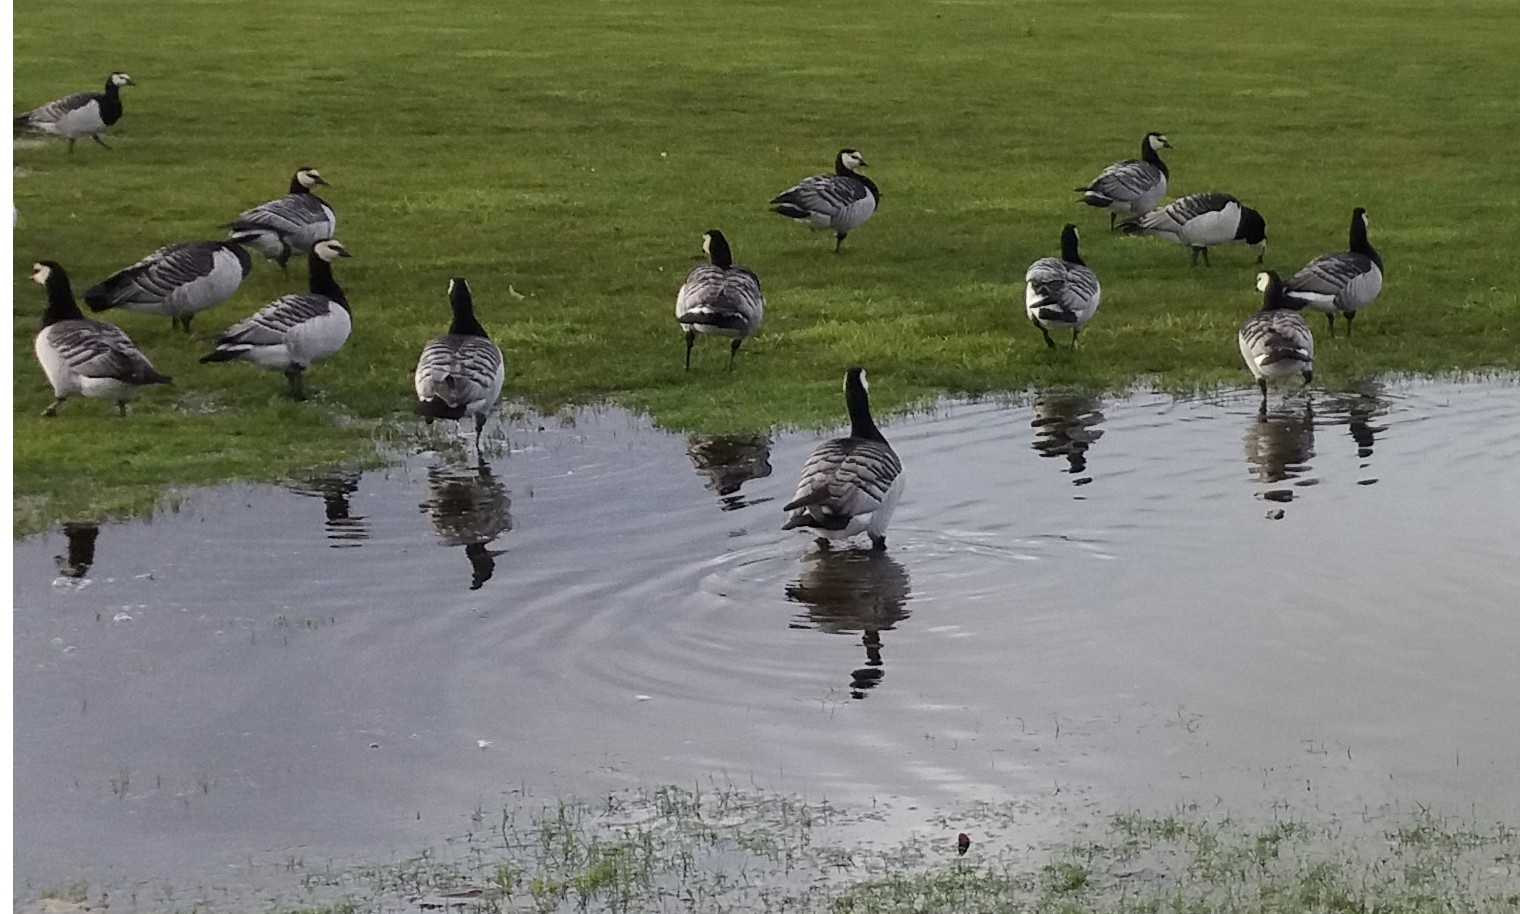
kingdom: Animalia
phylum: Chordata
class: Aves
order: Anseriformes
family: Anatidae
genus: Branta
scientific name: Branta leucopsis
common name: Barnacle goose
